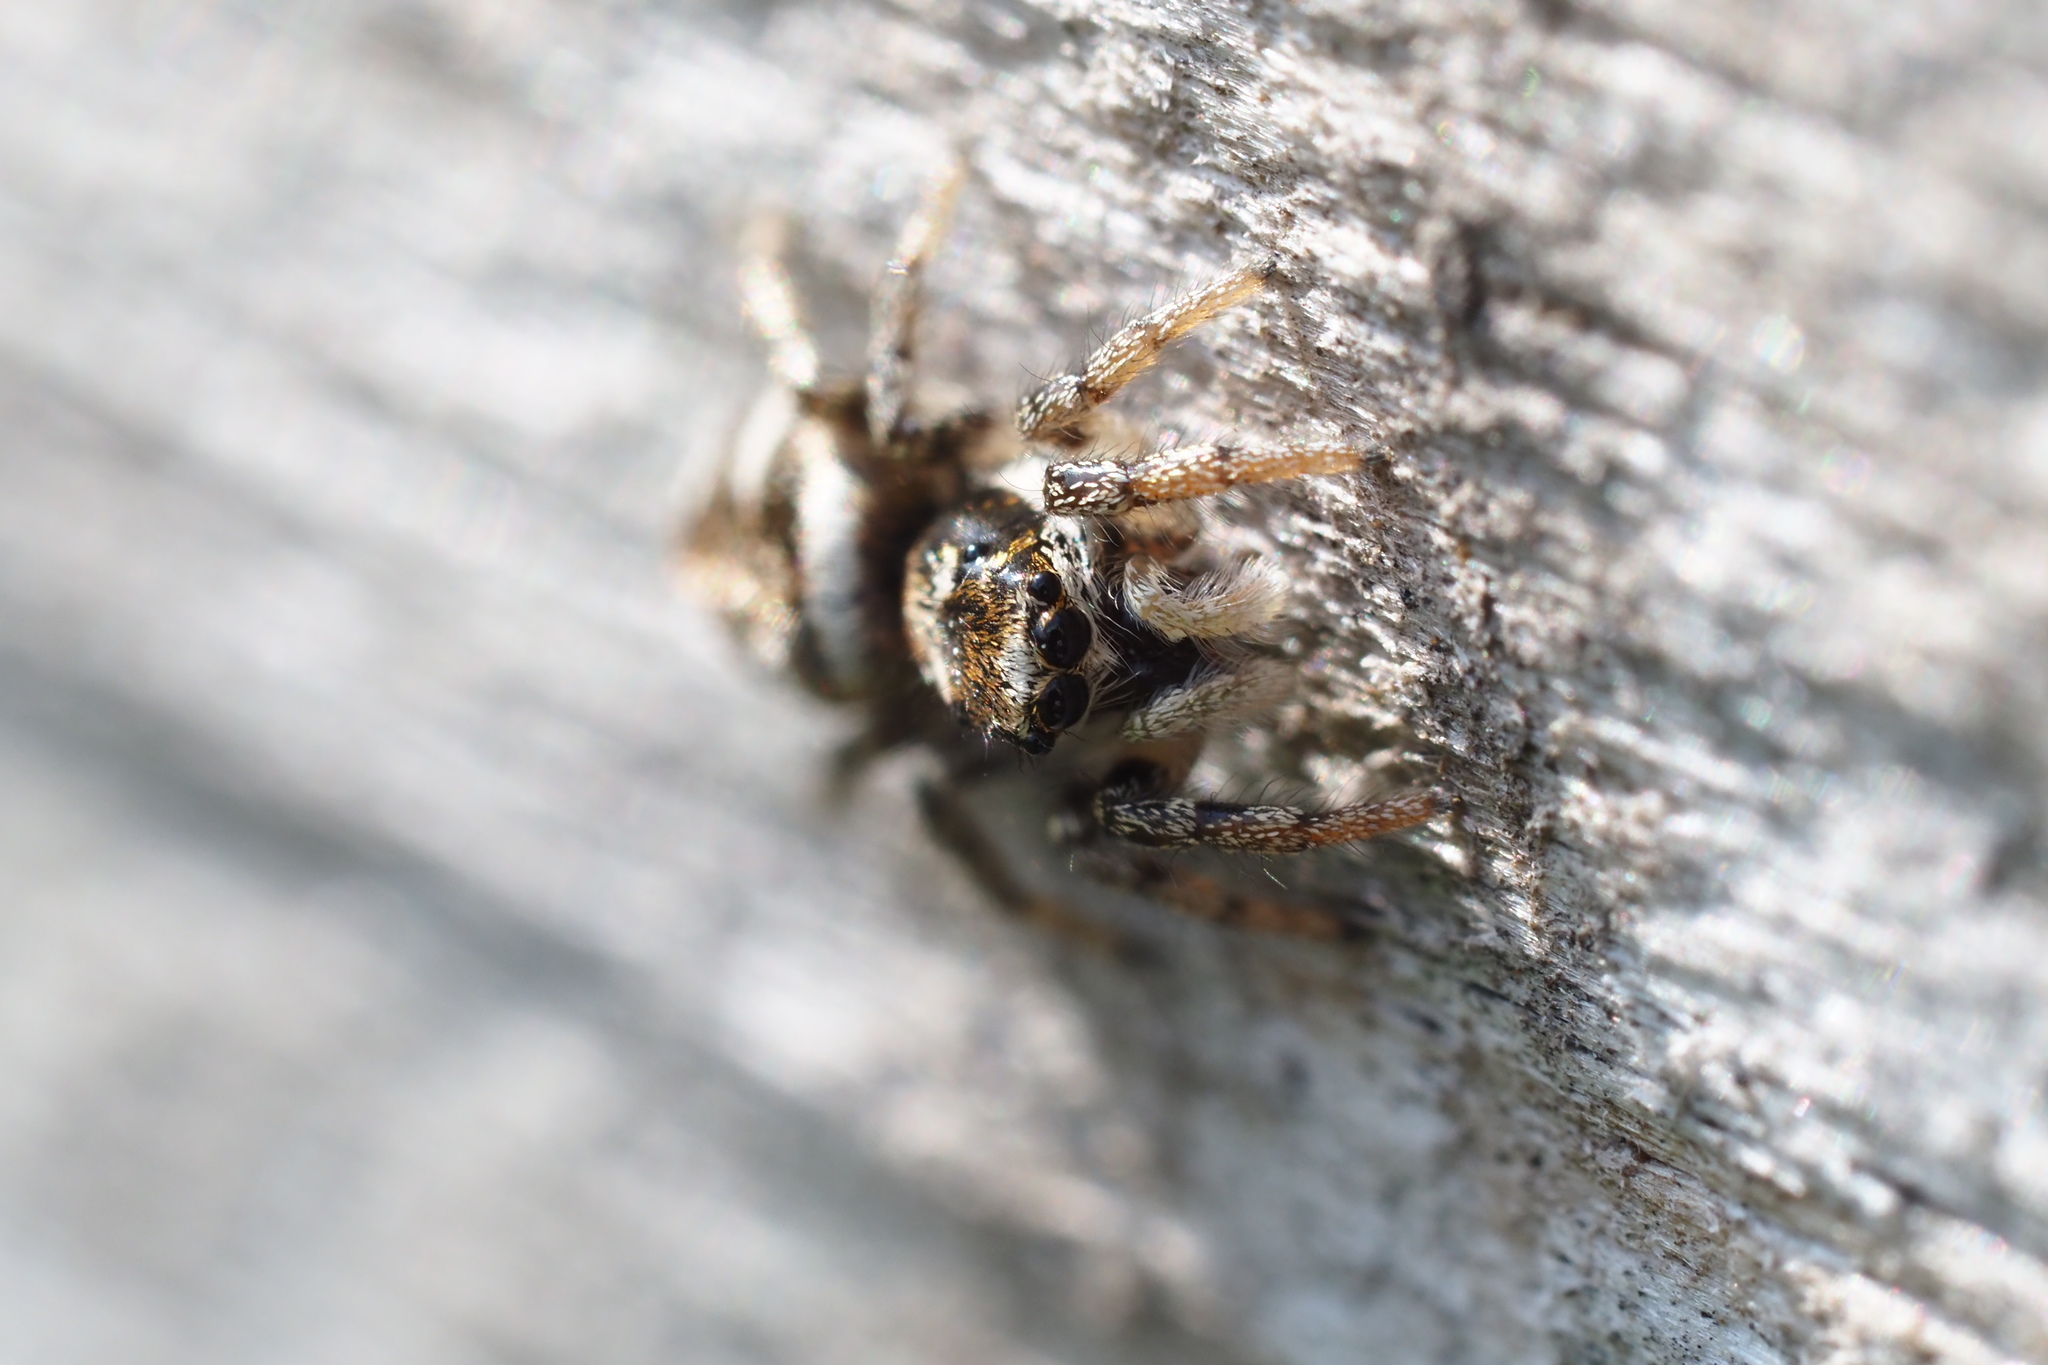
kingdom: Animalia
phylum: Arthropoda
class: Arachnida
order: Araneae
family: Salticidae
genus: Salticus
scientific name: Salticus scenicus
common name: Zebra jumper
